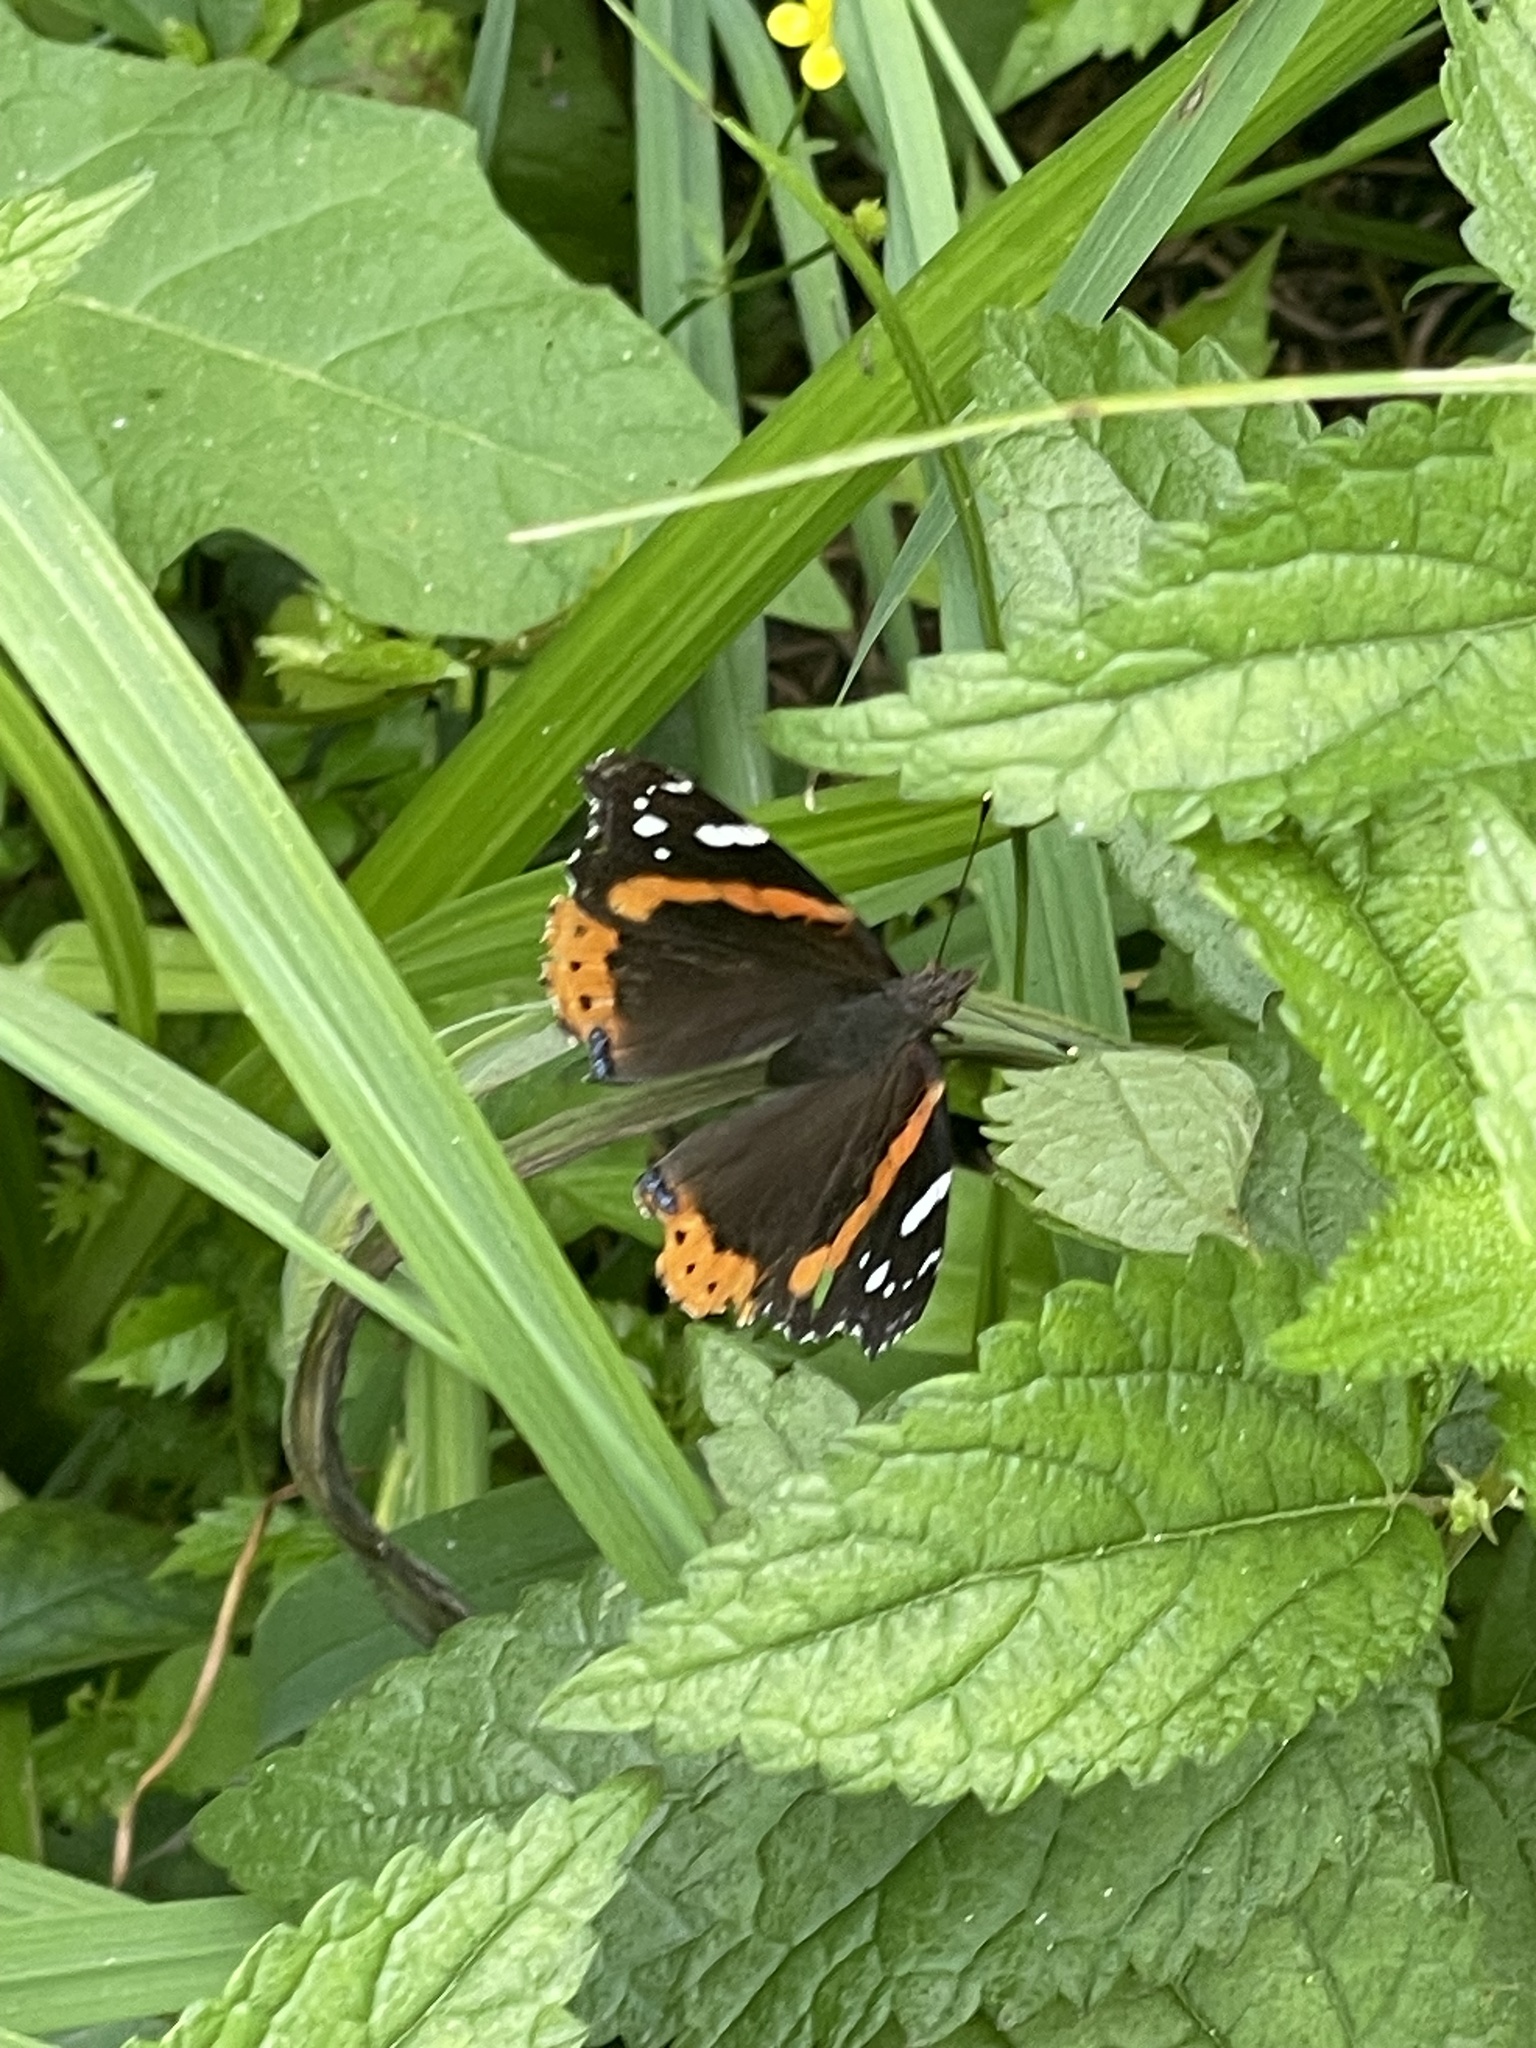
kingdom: Animalia
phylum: Arthropoda
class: Insecta
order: Lepidoptera
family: Nymphalidae
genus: Vanessa
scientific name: Vanessa atalanta
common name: Red admiral
